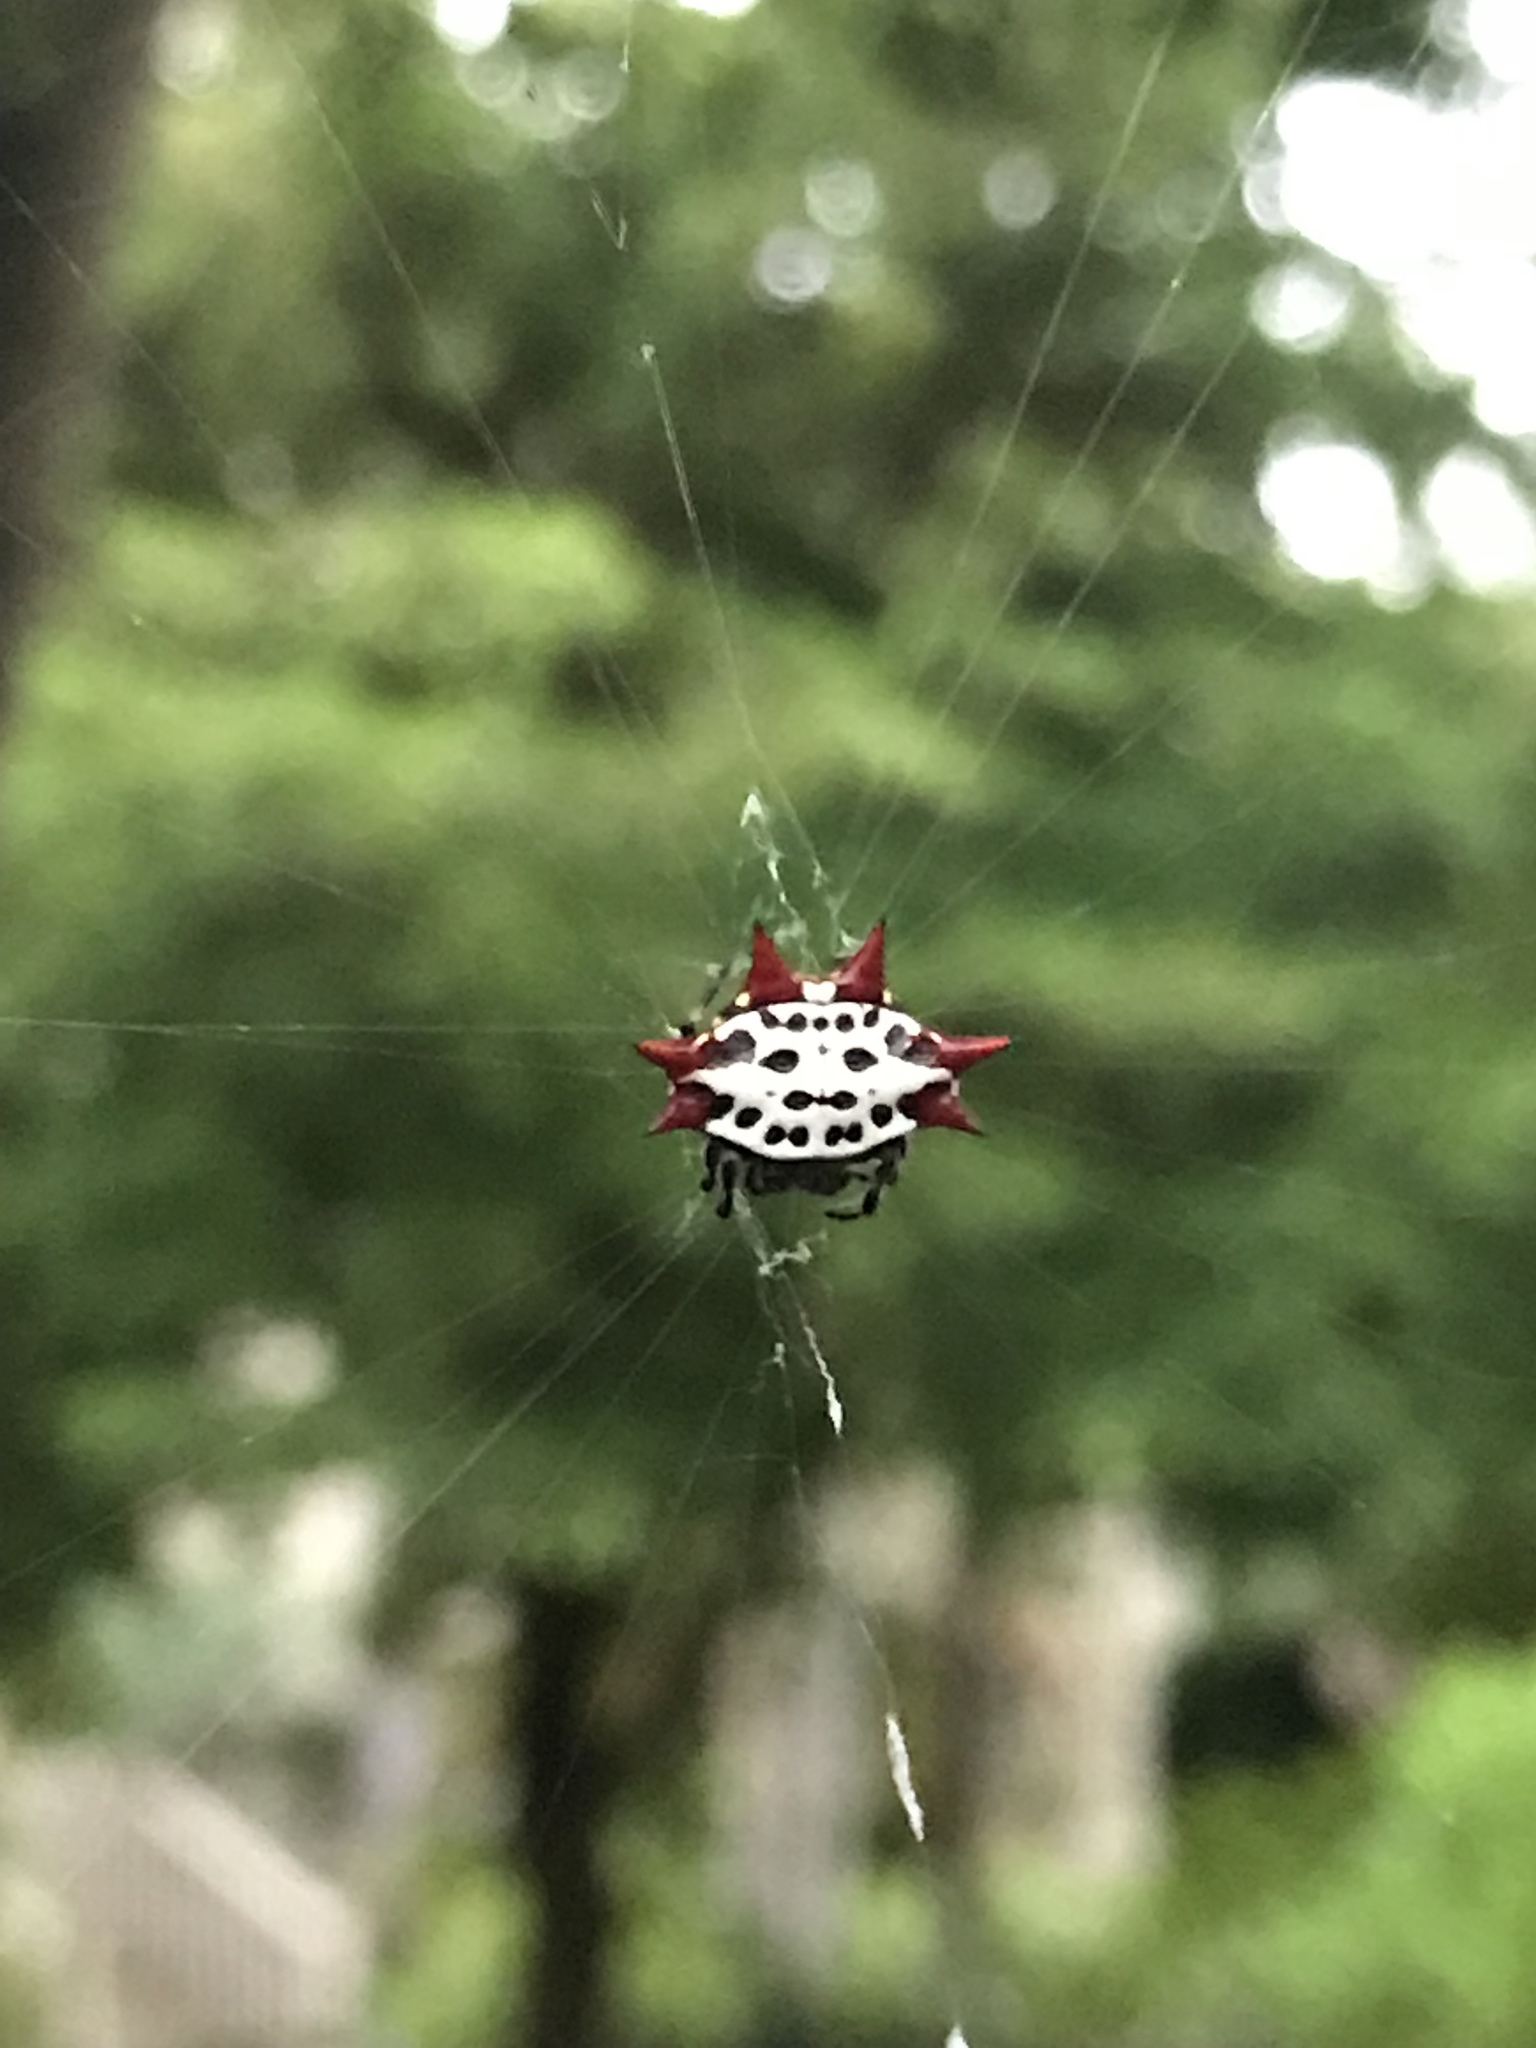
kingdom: Animalia
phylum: Arthropoda
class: Arachnida
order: Araneae
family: Araneidae
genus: Gasteracantha
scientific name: Gasteracantha cancriformis
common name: Orb weavers
